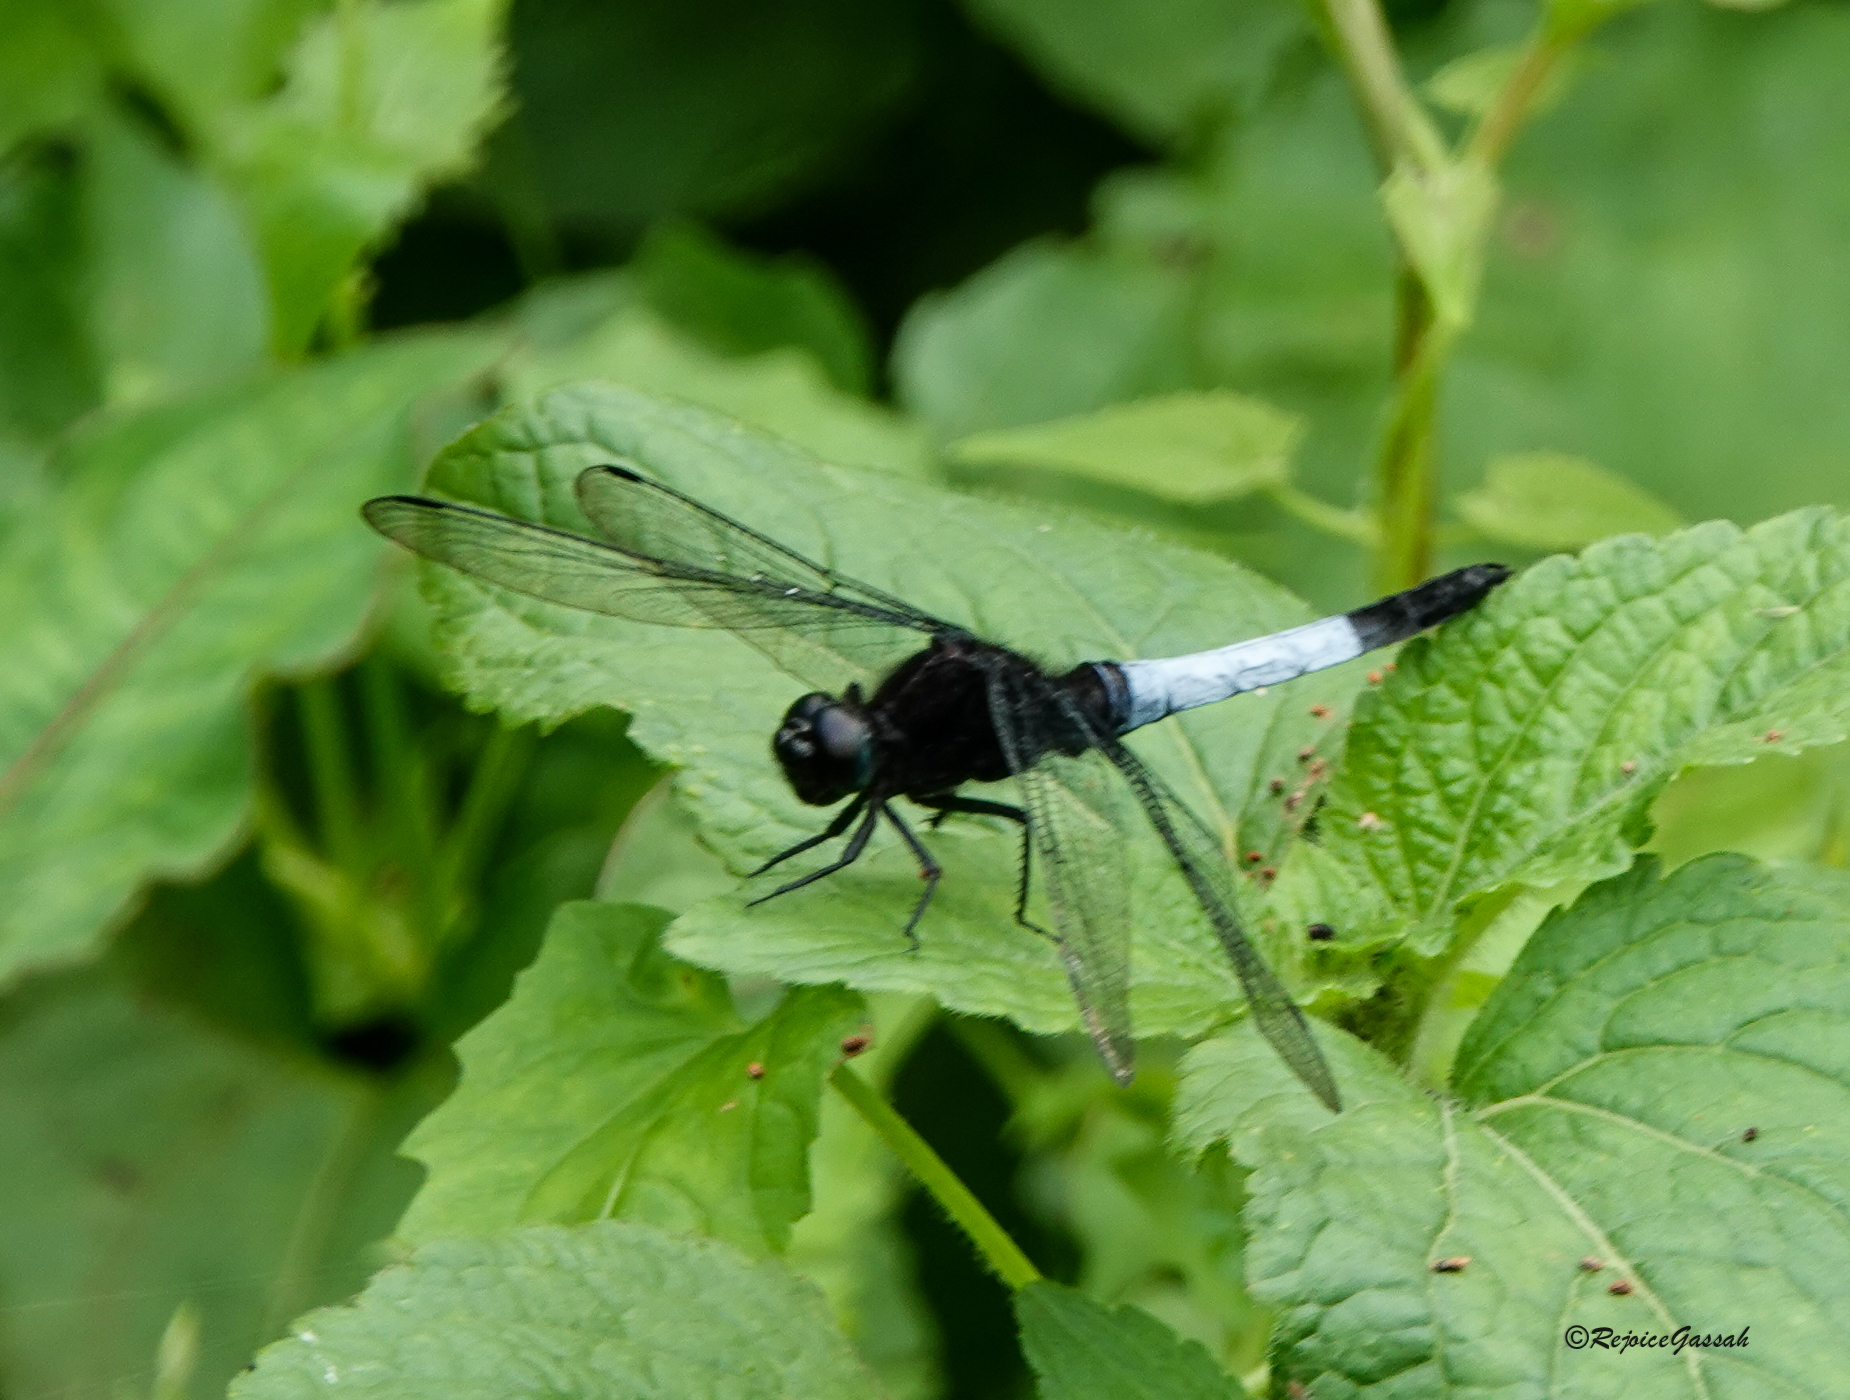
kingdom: Animalia
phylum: Arthropoda
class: Insecta
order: Odonata
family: Libellulidae
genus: Orthetrum
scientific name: Orthetrum triangulare
